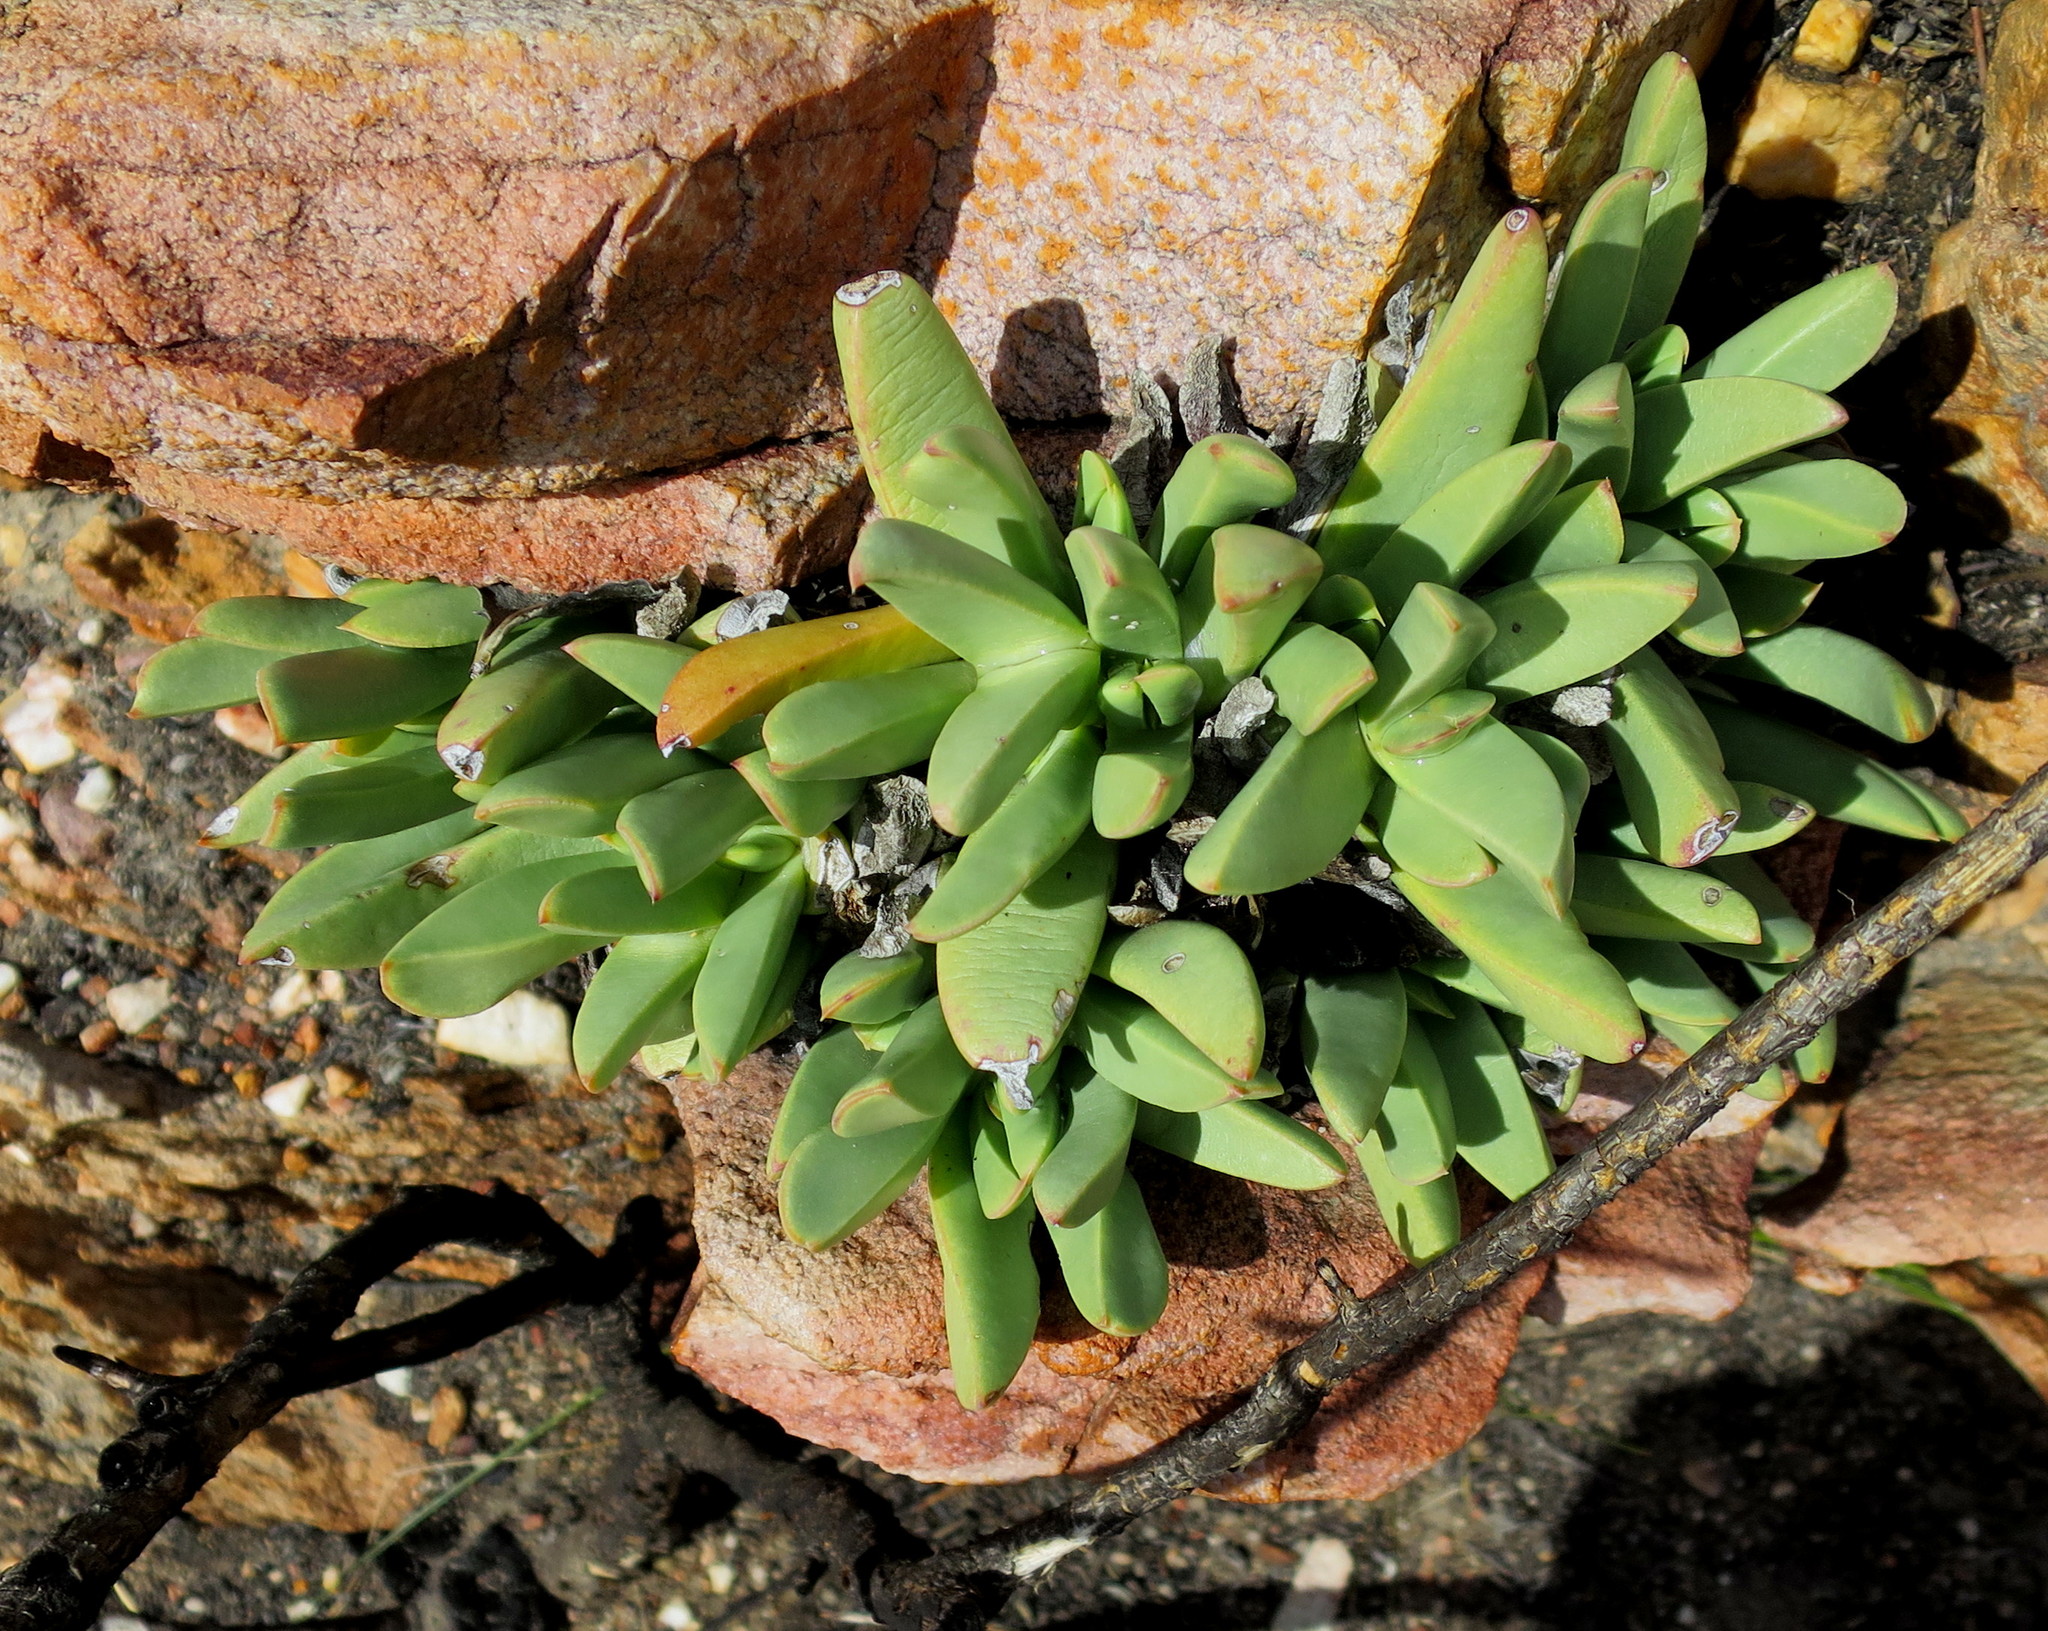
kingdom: Plantae
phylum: Tracheophyta
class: Magnoliopsida
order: Caryophyllales
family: Aizoaceae
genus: Machairophyllum
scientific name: Machairophyllum albidum
